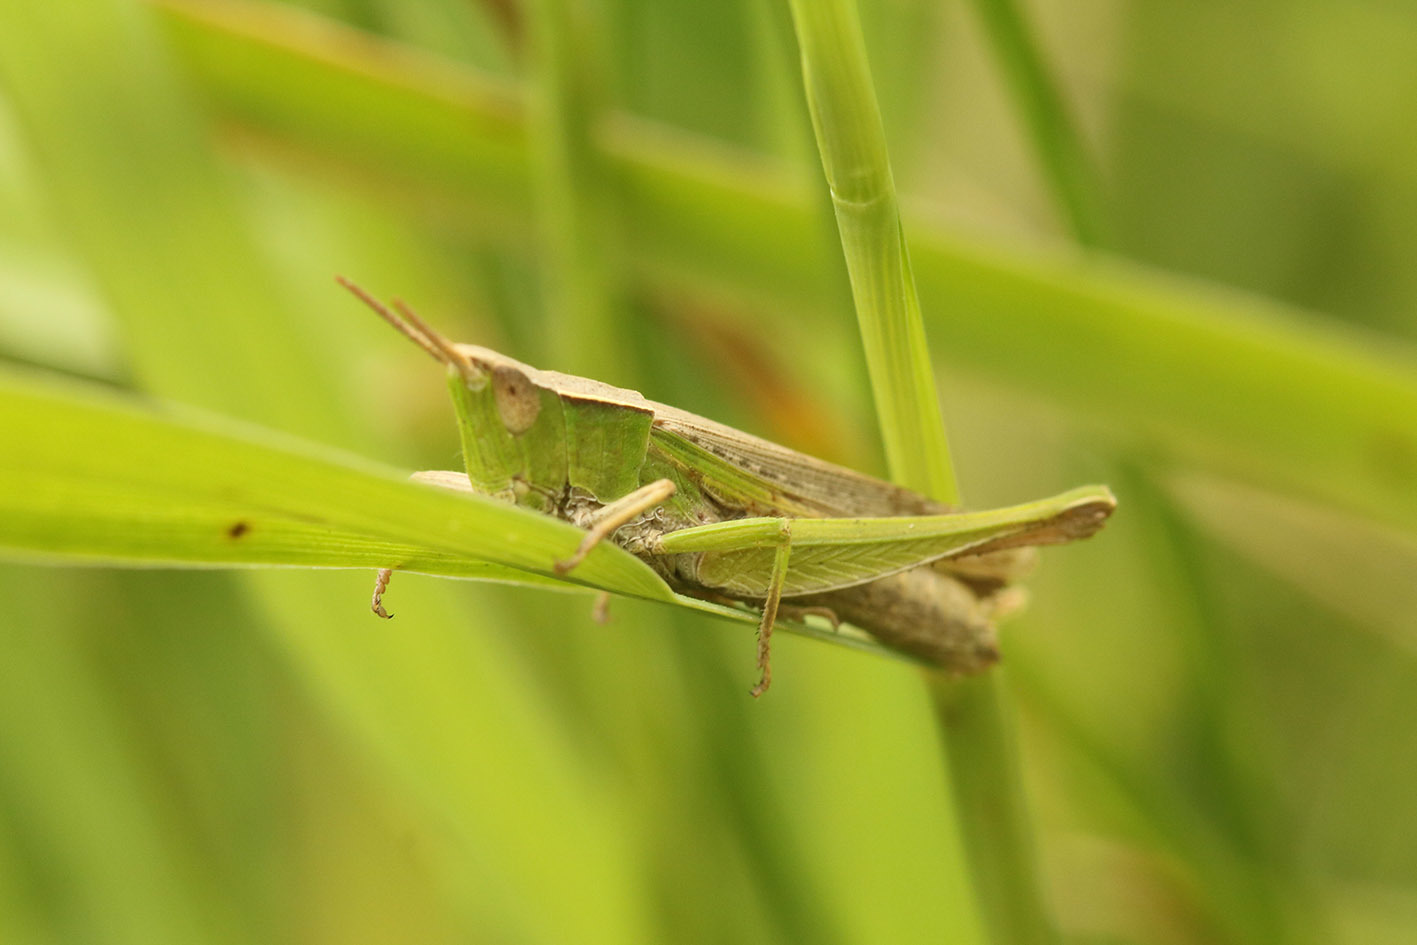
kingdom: Animalia
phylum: Arthropoda
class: Insecta
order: Orthoptera
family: Acrididae
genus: Laplatacris
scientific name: Laplatacris dispar
